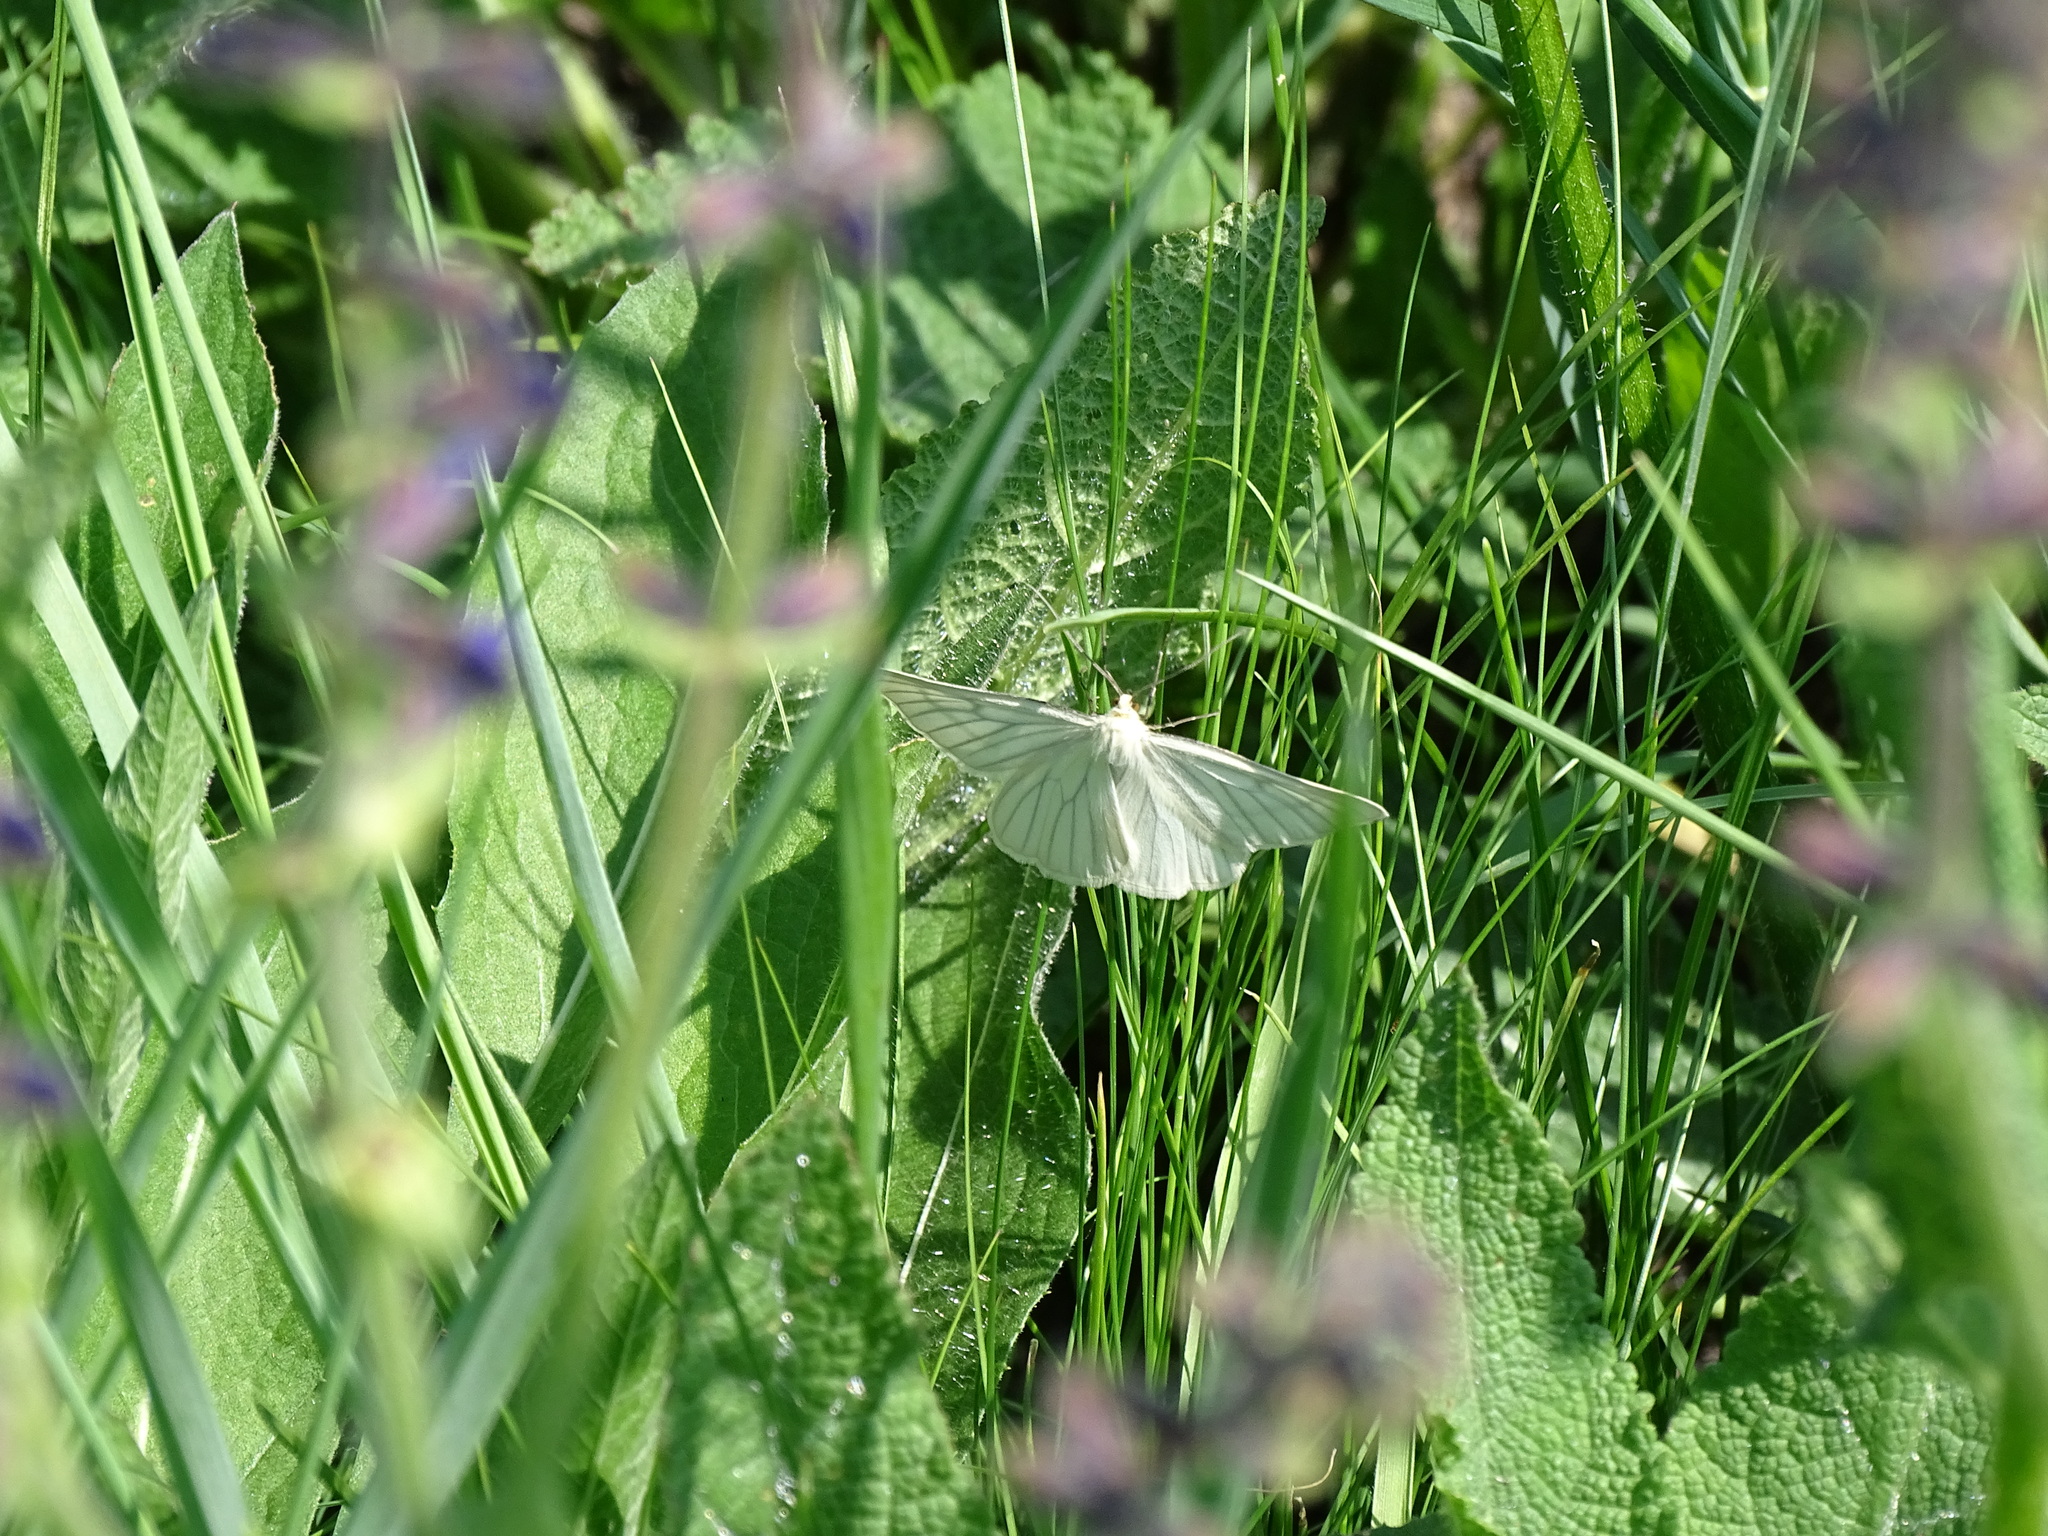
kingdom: Animalia
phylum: Arthropoda
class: Insecta
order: Lepidoptera
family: Geometridae
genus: Siona
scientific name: Siona lineata
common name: Black-veined moth
